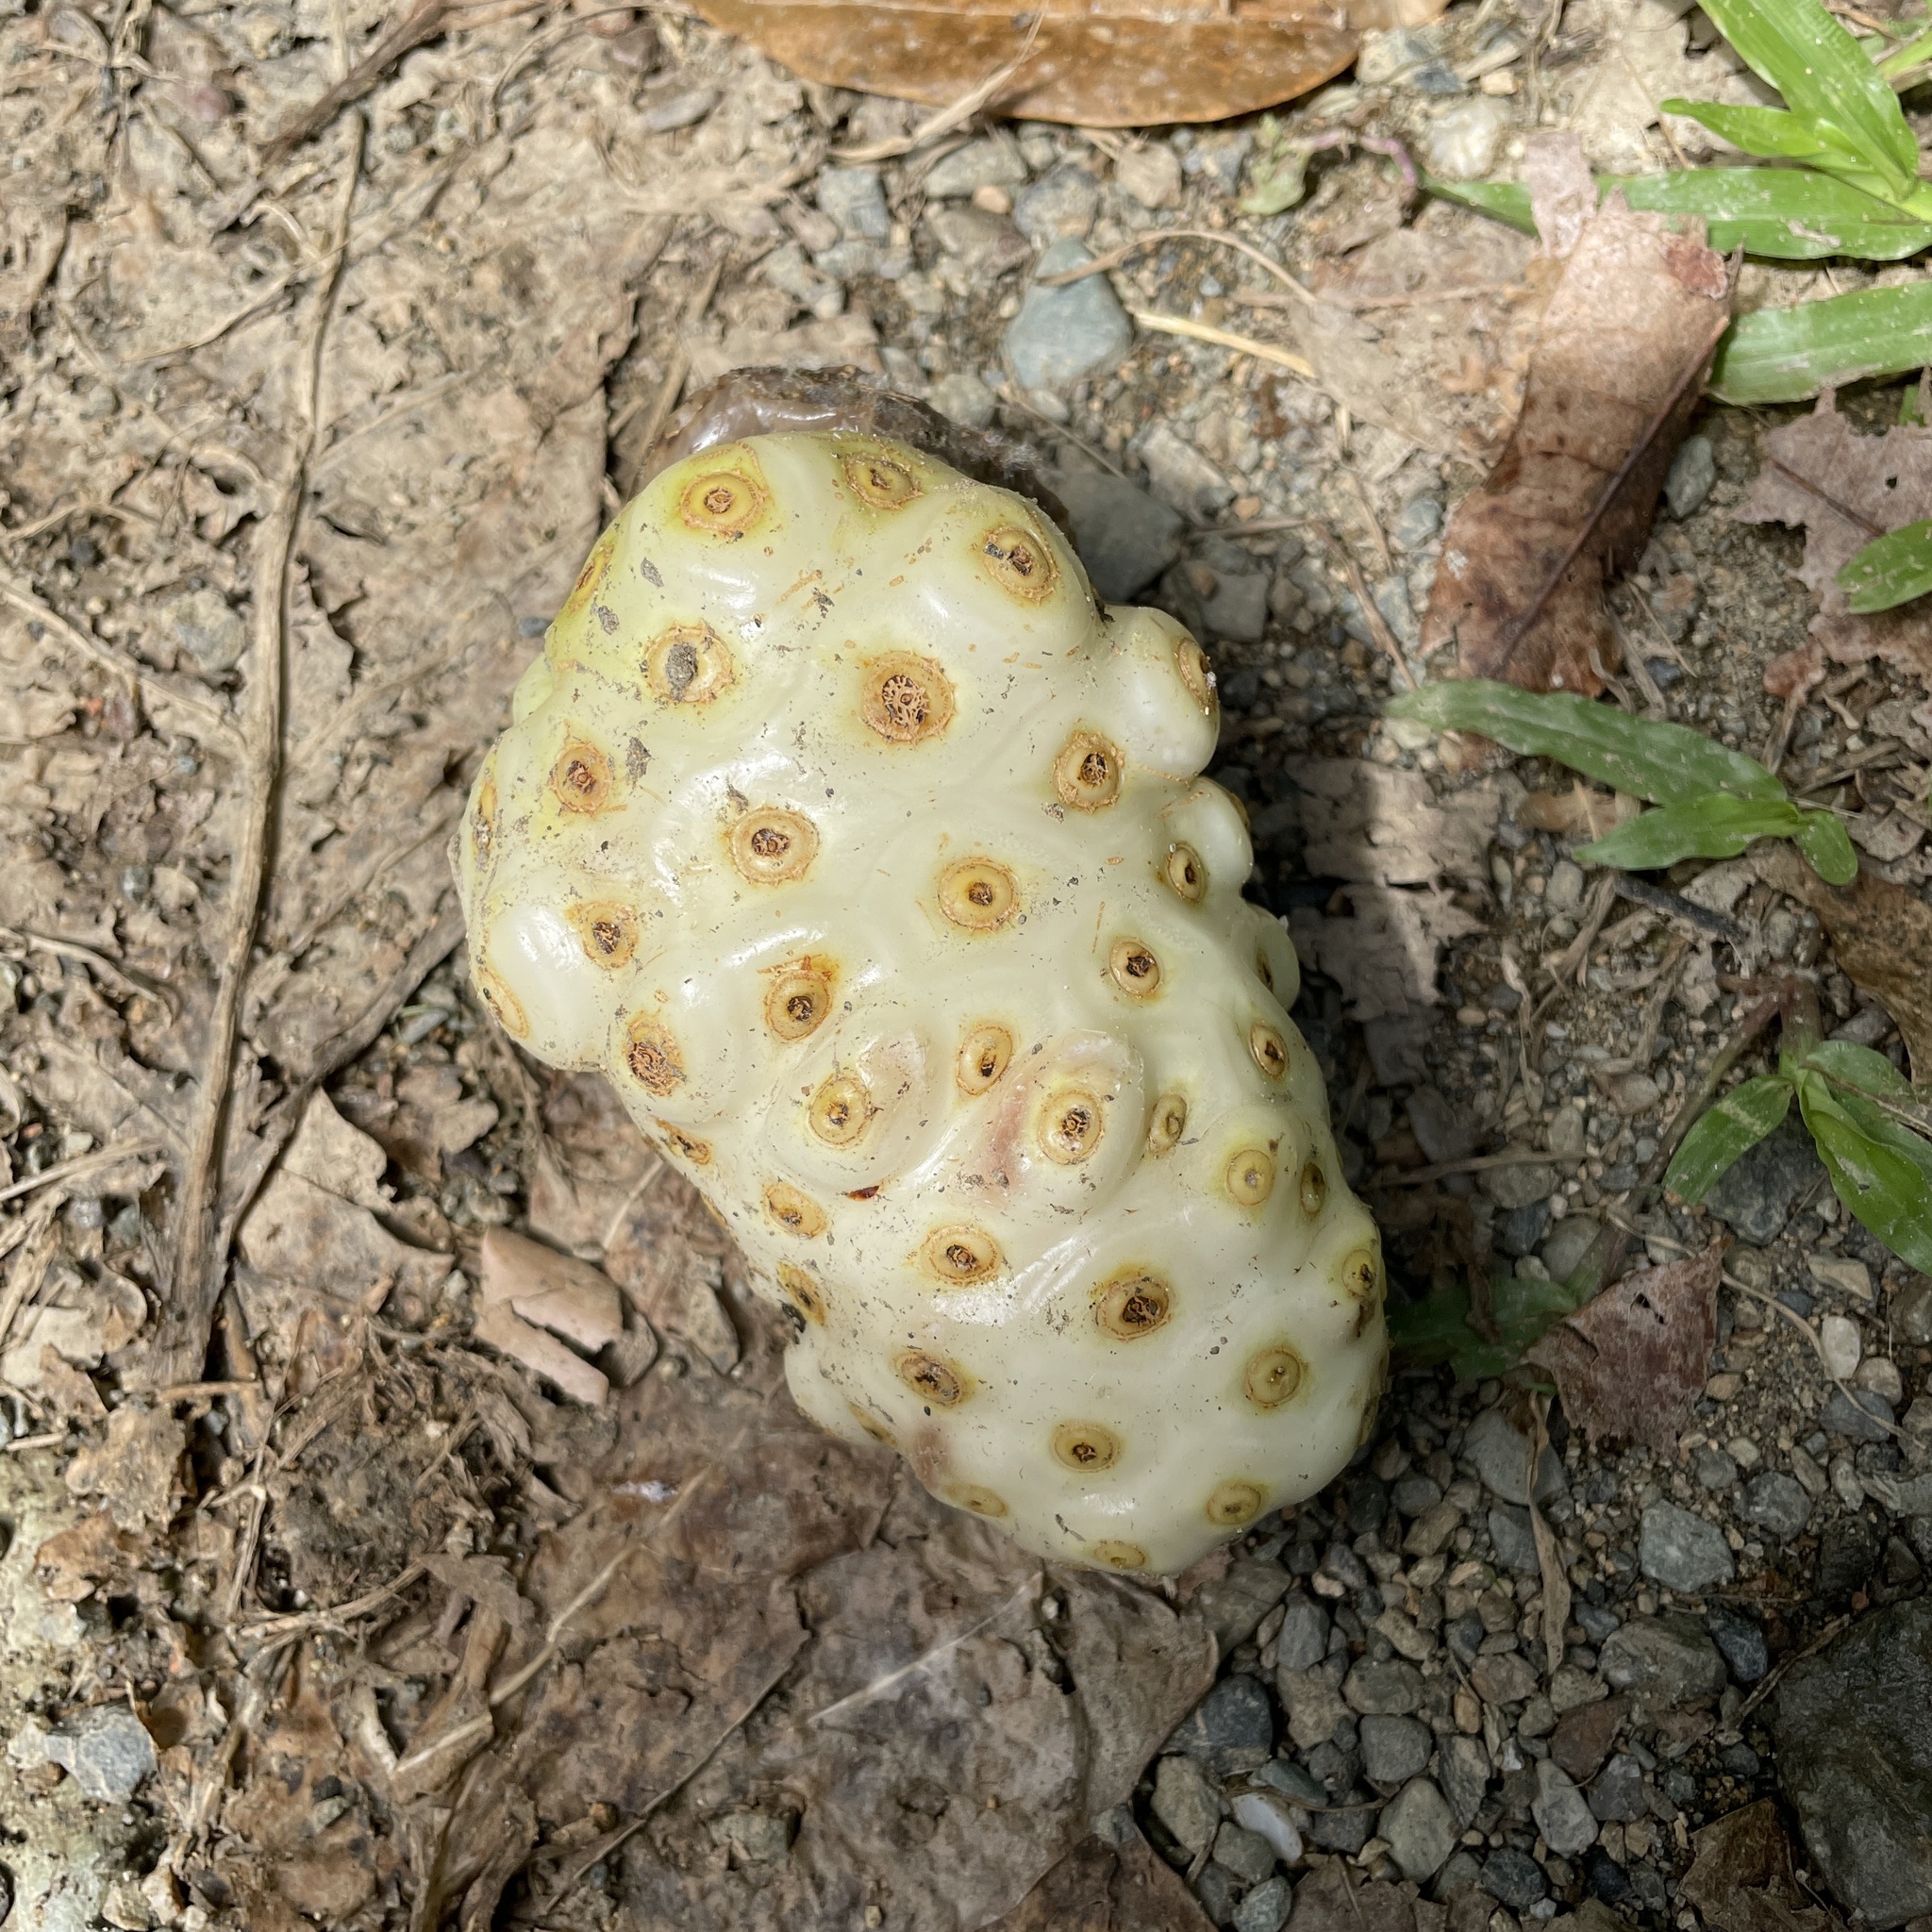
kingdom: Plantae
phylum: Tracheophyta
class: Magnoliopsida
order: Gentianales
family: Rubiaceae
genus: Morinda
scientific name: Morinda citrifolia
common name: Indian-mulberry
